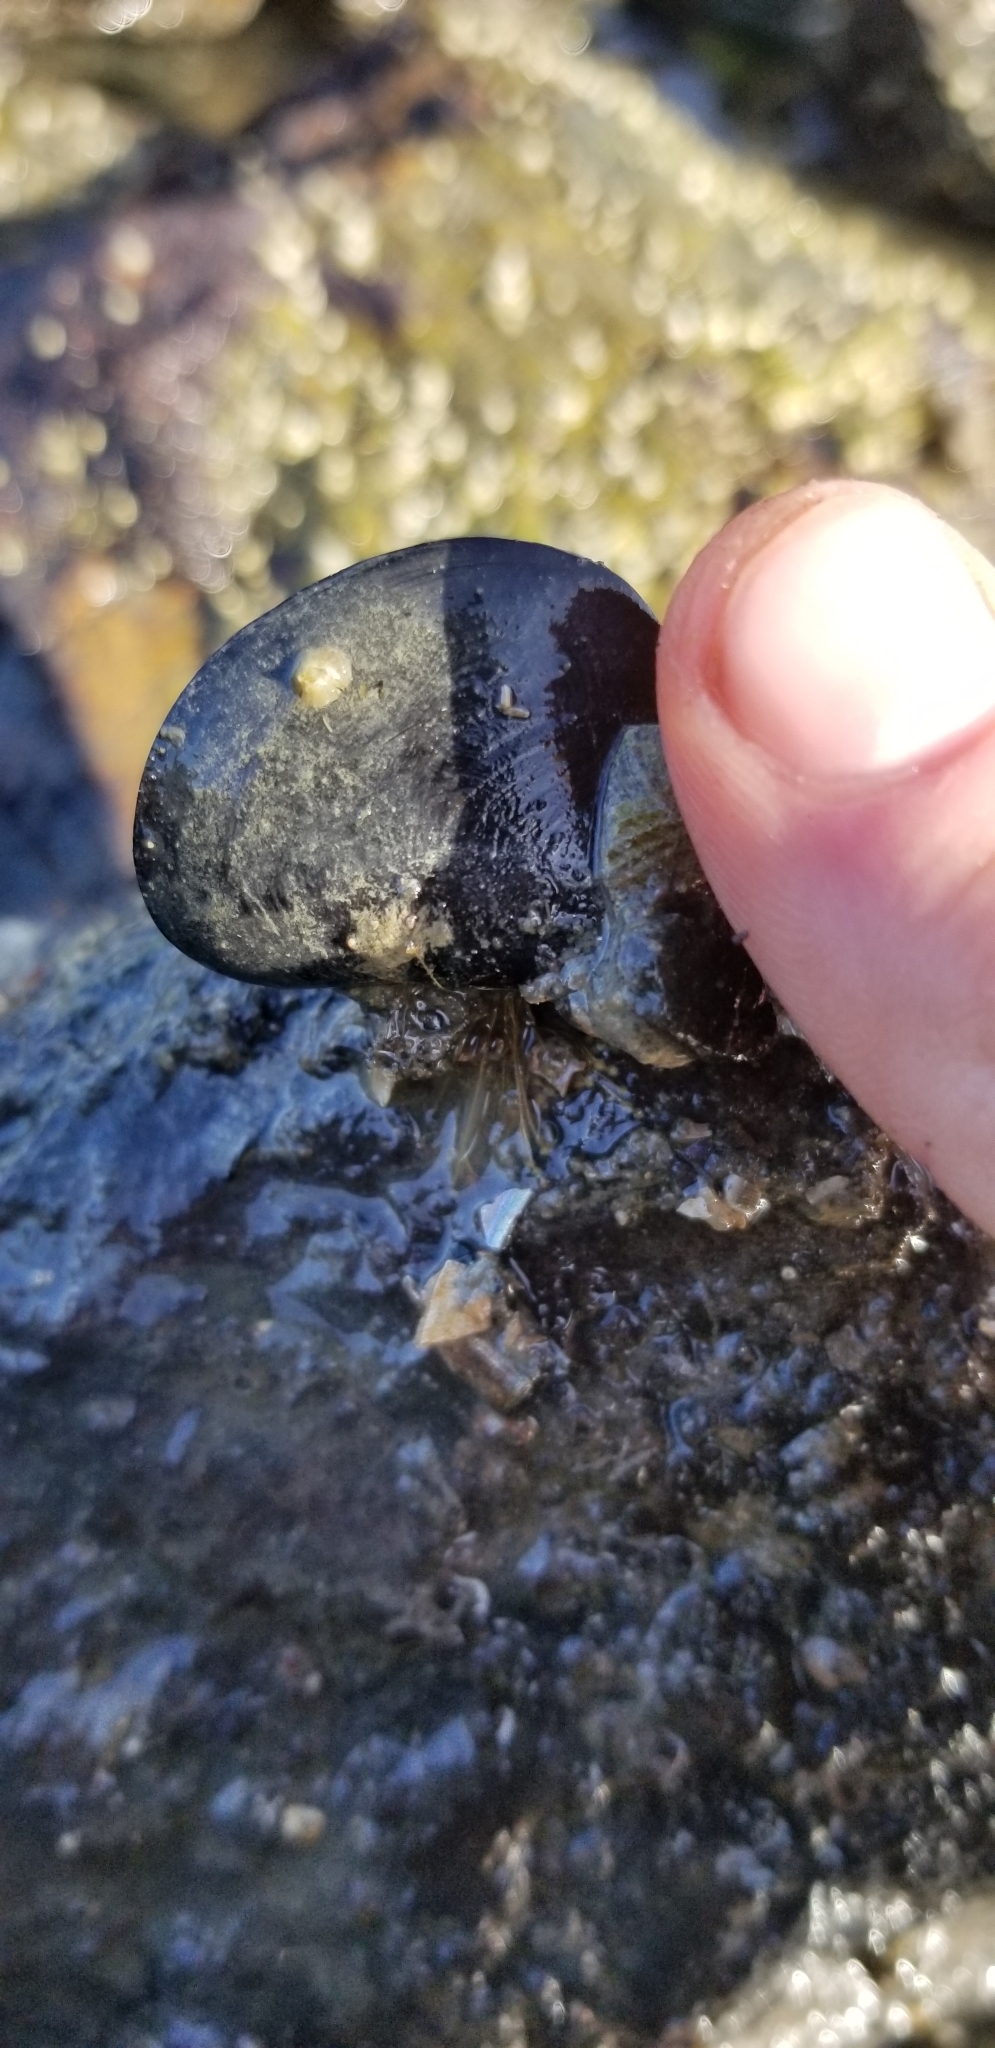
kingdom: Animalia
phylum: Mollusca
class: Bivalvia
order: Mytilida
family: Mytilidae
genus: Mytilus
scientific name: Mytilus
